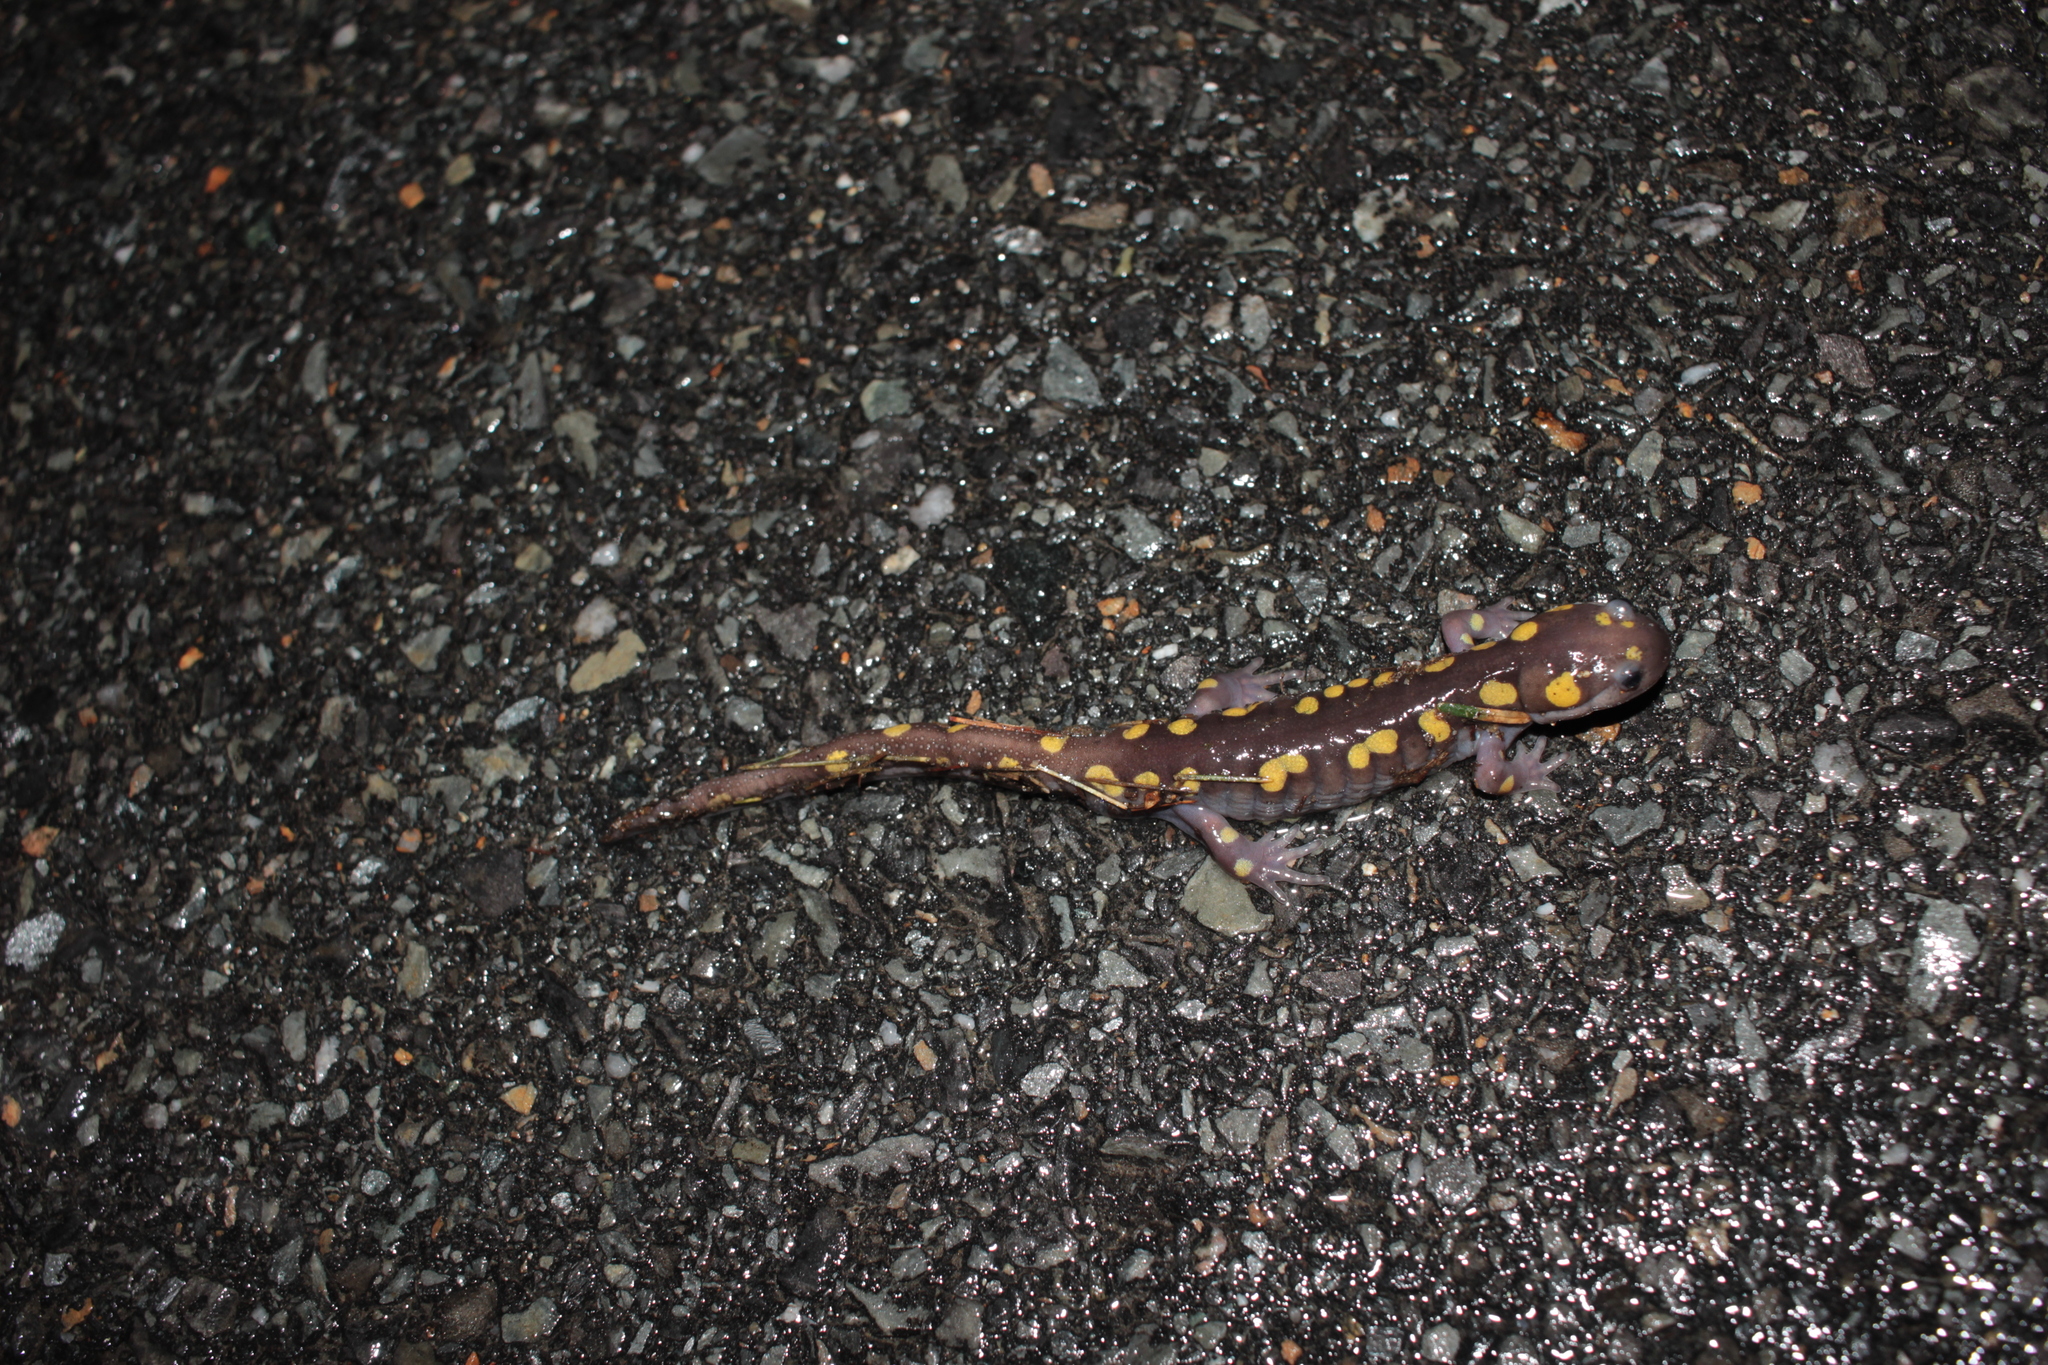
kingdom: Animalia
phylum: Chordata
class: Amphibia
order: Caudata
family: Ambystomatidae
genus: Ambystoma
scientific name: Ambystoma maculatum
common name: Spotted salamander
